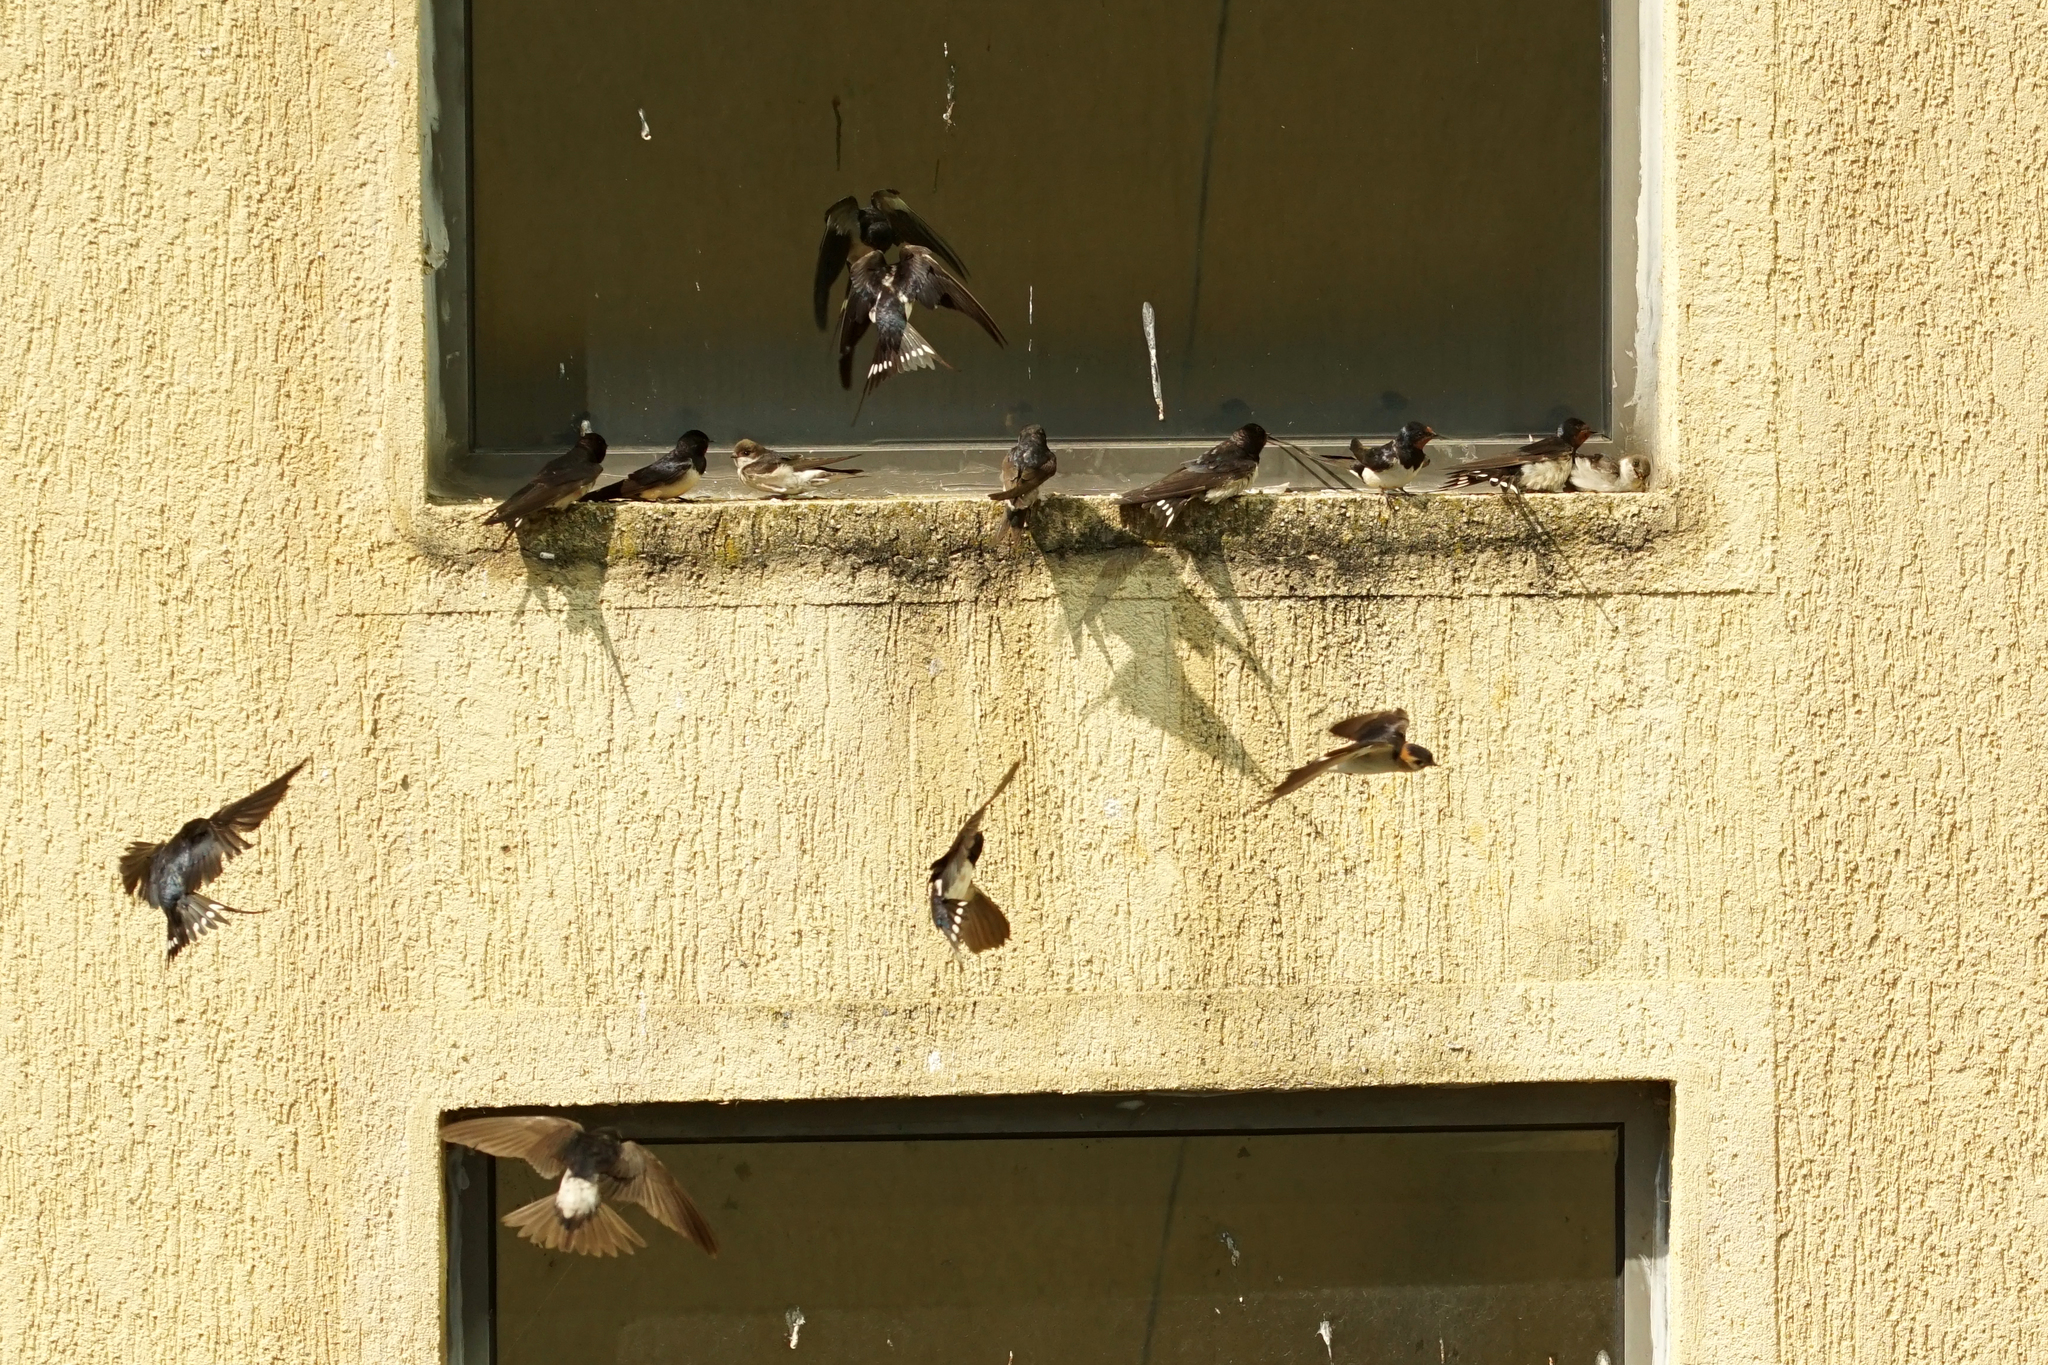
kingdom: Animalia
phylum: Chordata
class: Aves
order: Passeriformes
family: Hirundinidae
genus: Hirundo
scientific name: Hirundo rustica
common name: Barn swallow
